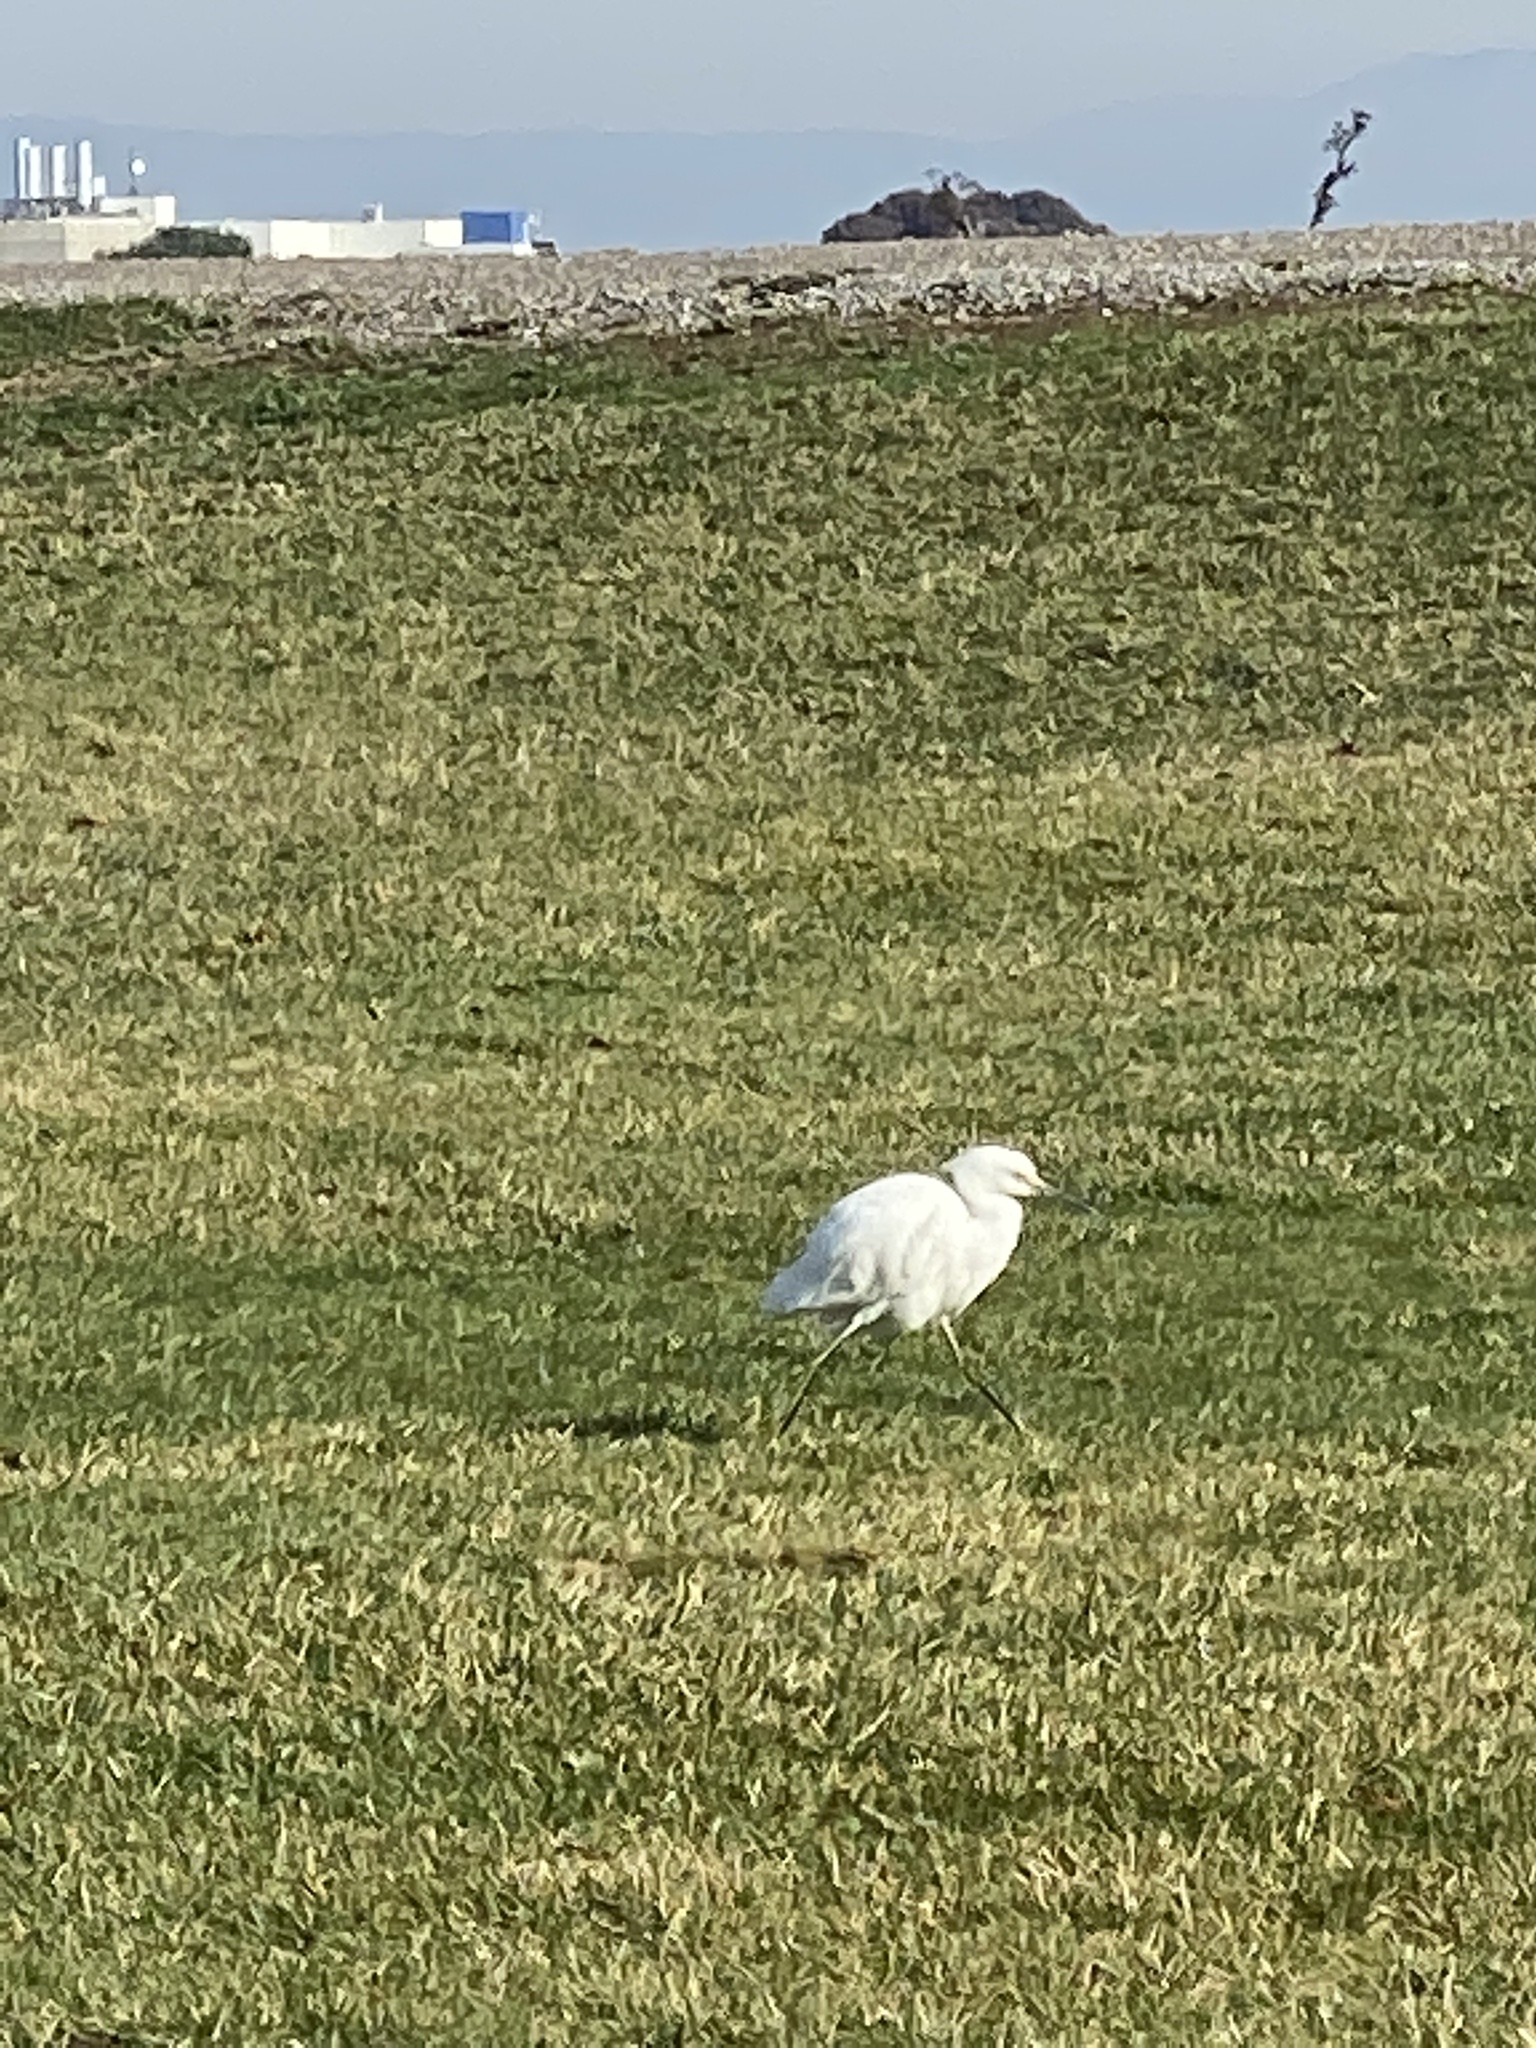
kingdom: Animalia
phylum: Chordata
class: Aves
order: Pelecaniformes
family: Ardeidae
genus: Egretta
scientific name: Egretta thula
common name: Snowy egret
